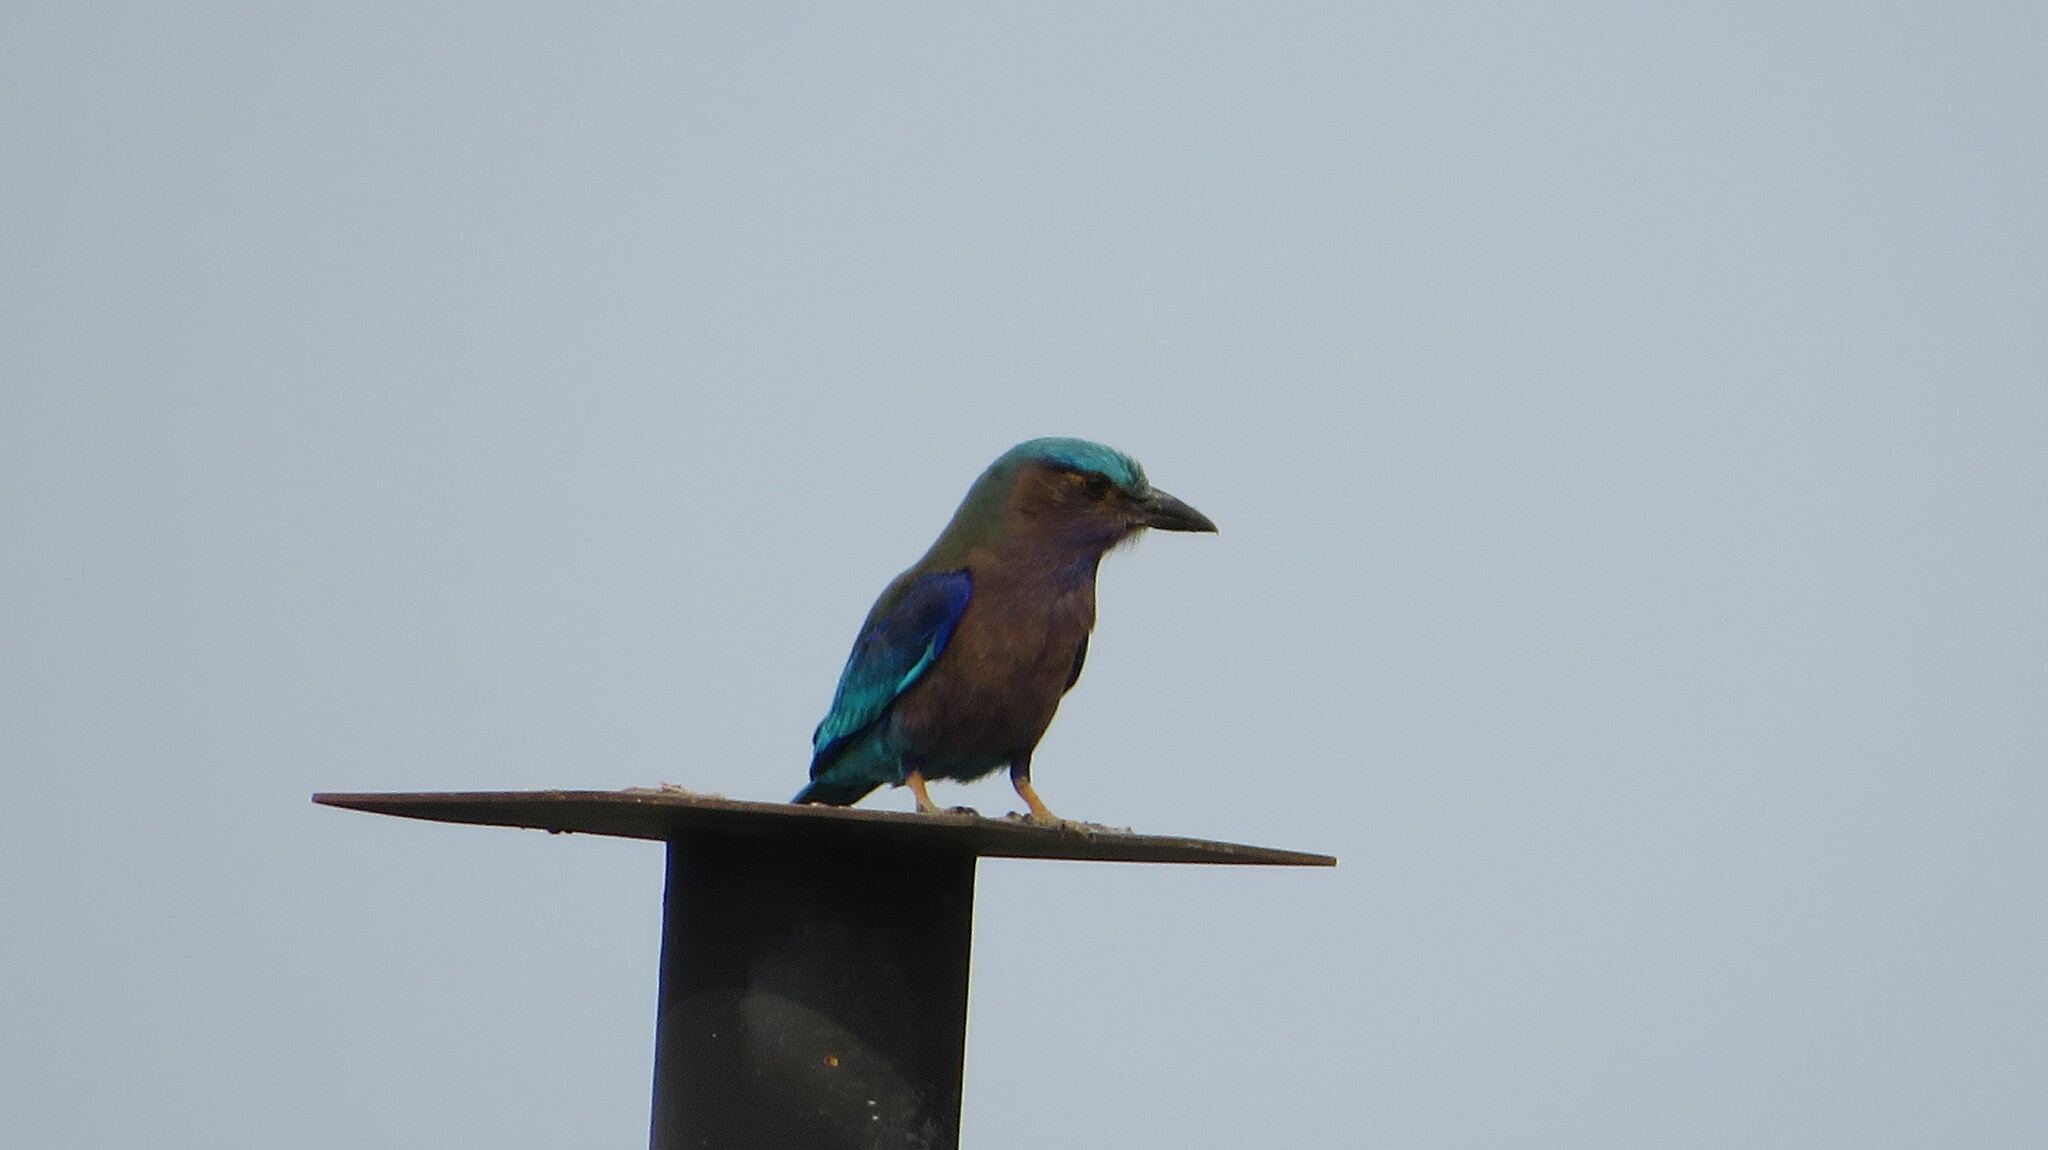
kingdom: Animalia
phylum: Chordata
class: Aves
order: Coraciiformes
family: Coraciidae
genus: Coracias
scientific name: Coracias affinis
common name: Indochinese roller
